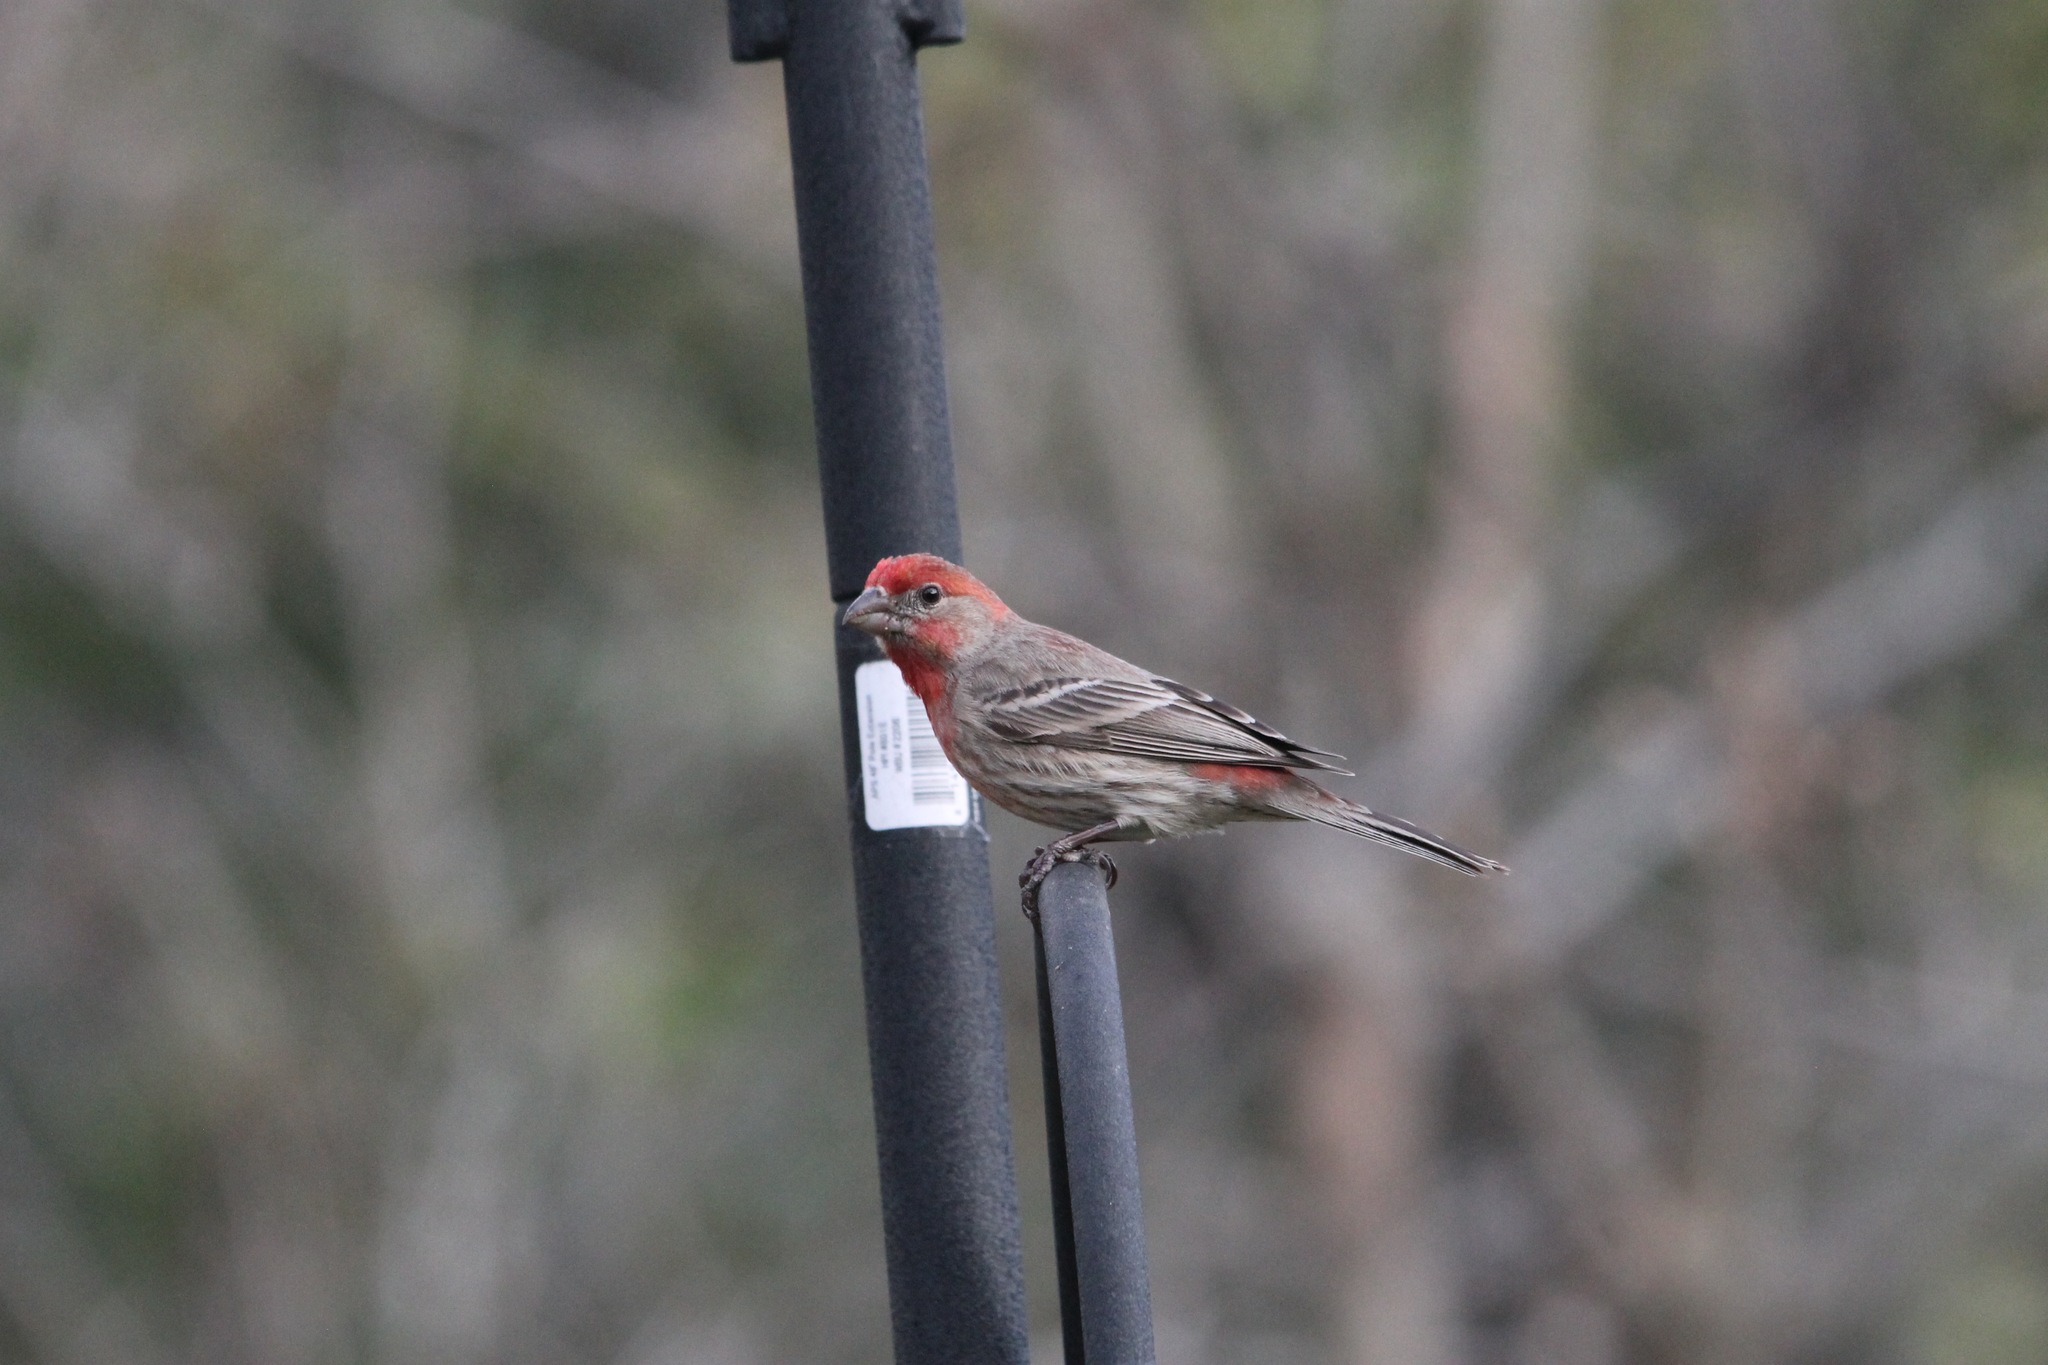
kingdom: Animalia
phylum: Chordata
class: Aves
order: Passeriformes
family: Fringillidae
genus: Haemorhous
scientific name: Haemorhous mexicanus
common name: House finch
